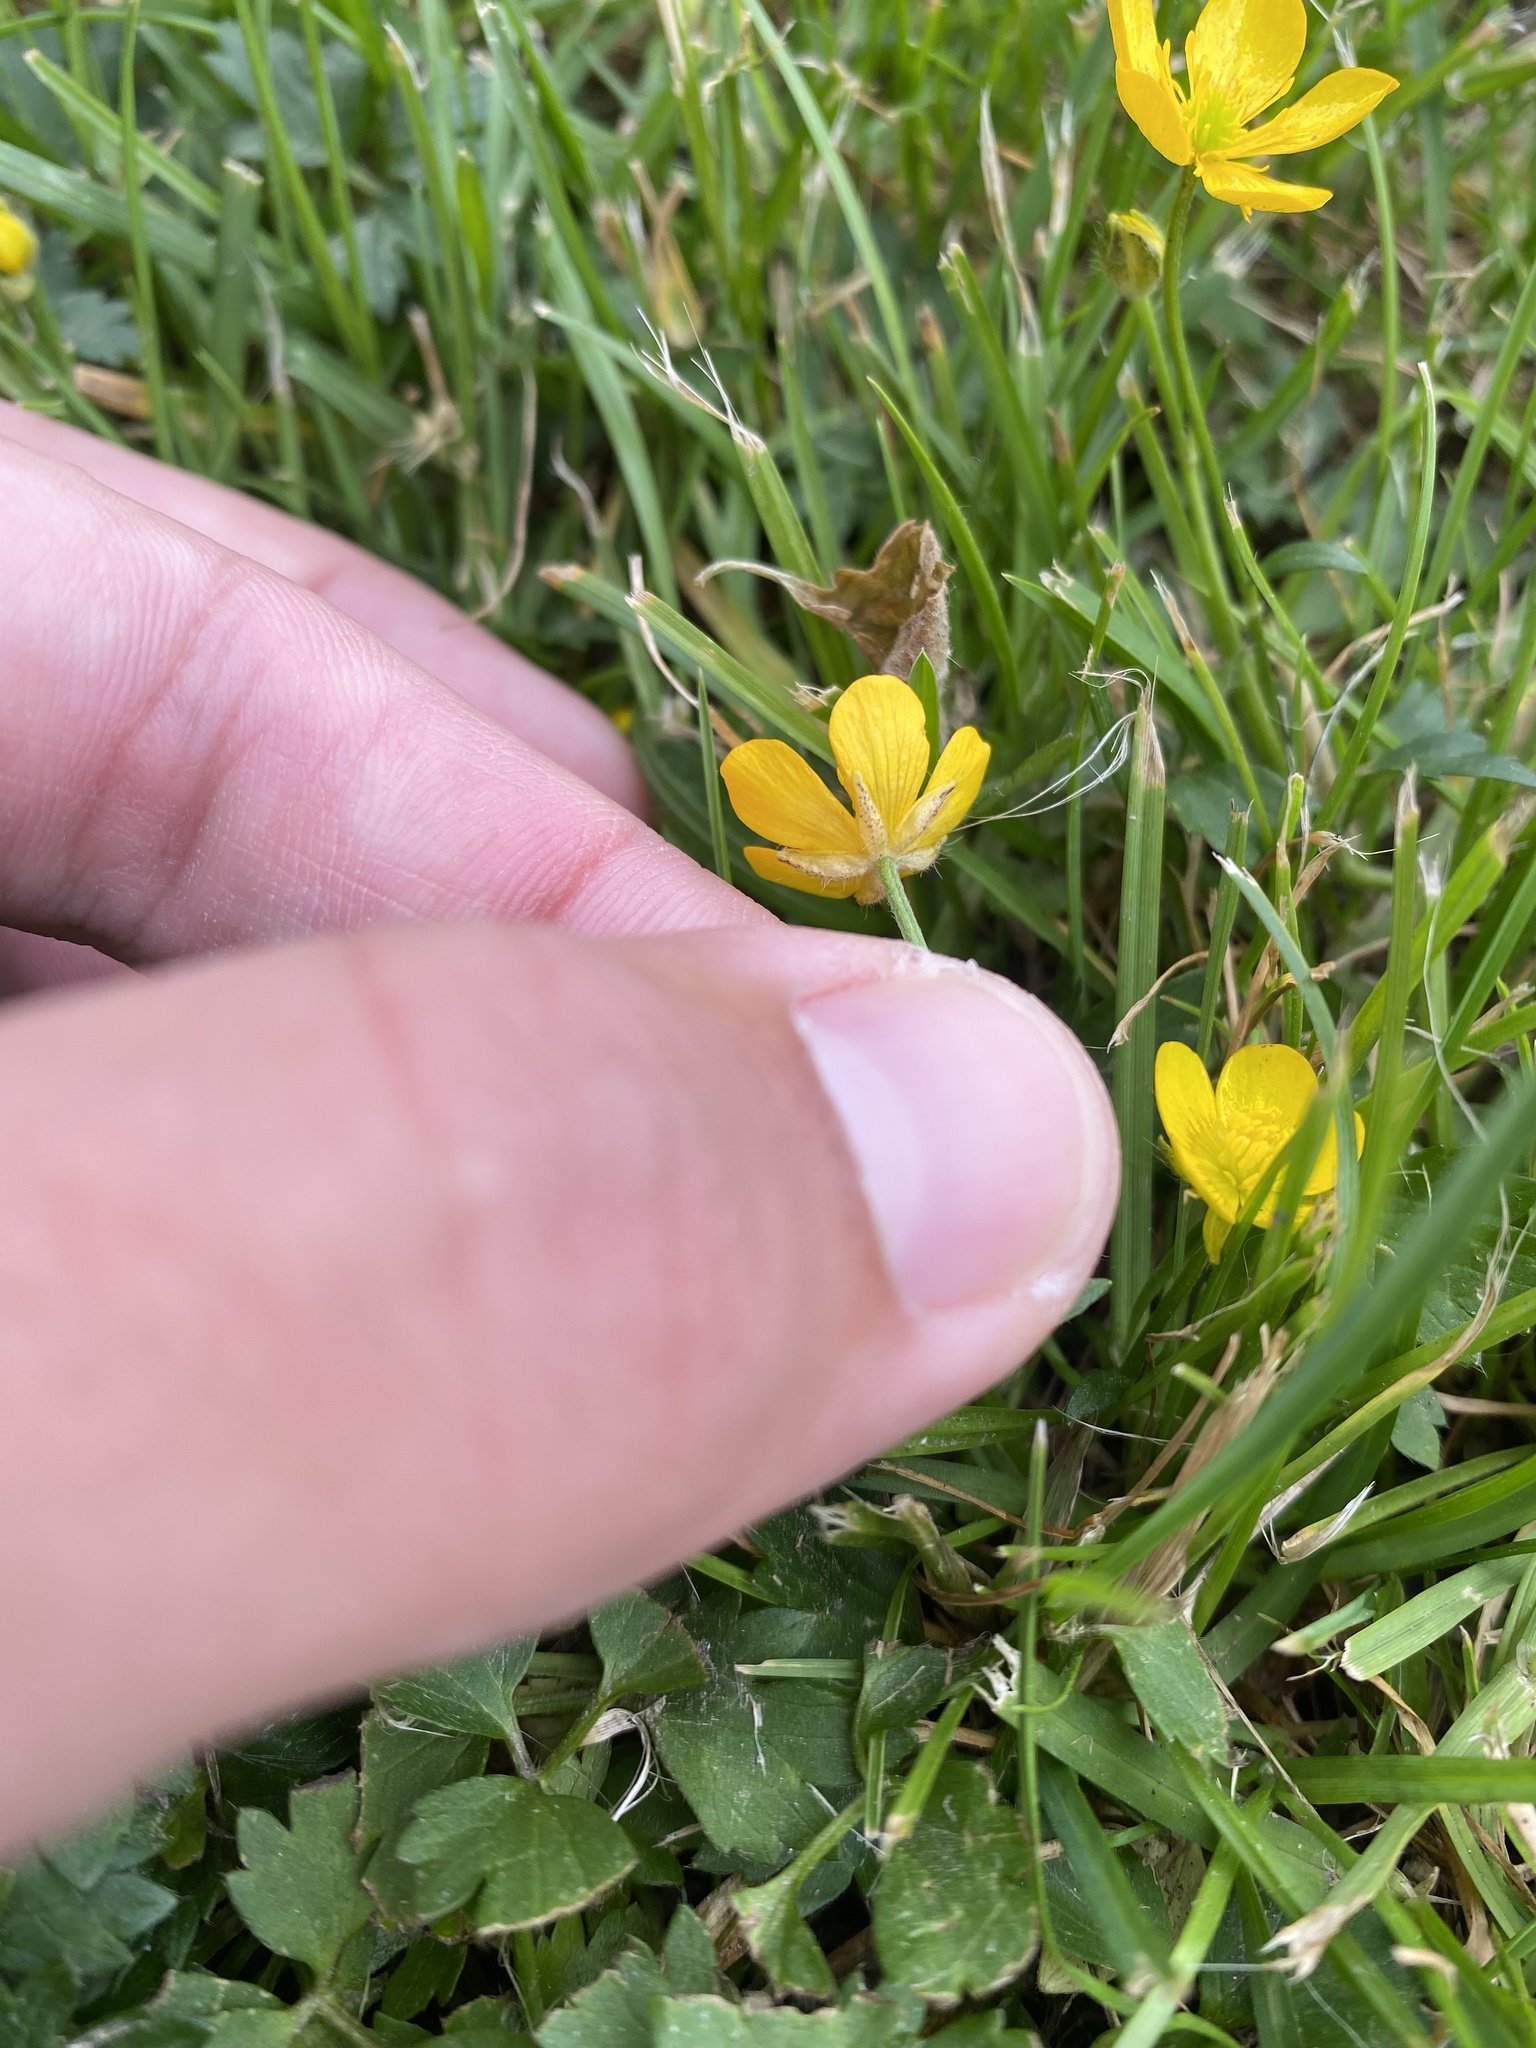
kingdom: Plantae
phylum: Tracheophyta
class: Magnoliopsida
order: Ranunculales
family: Ranunculaceae
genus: Ranunculus
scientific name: Ranunculus repens
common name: Creeping buttercup
